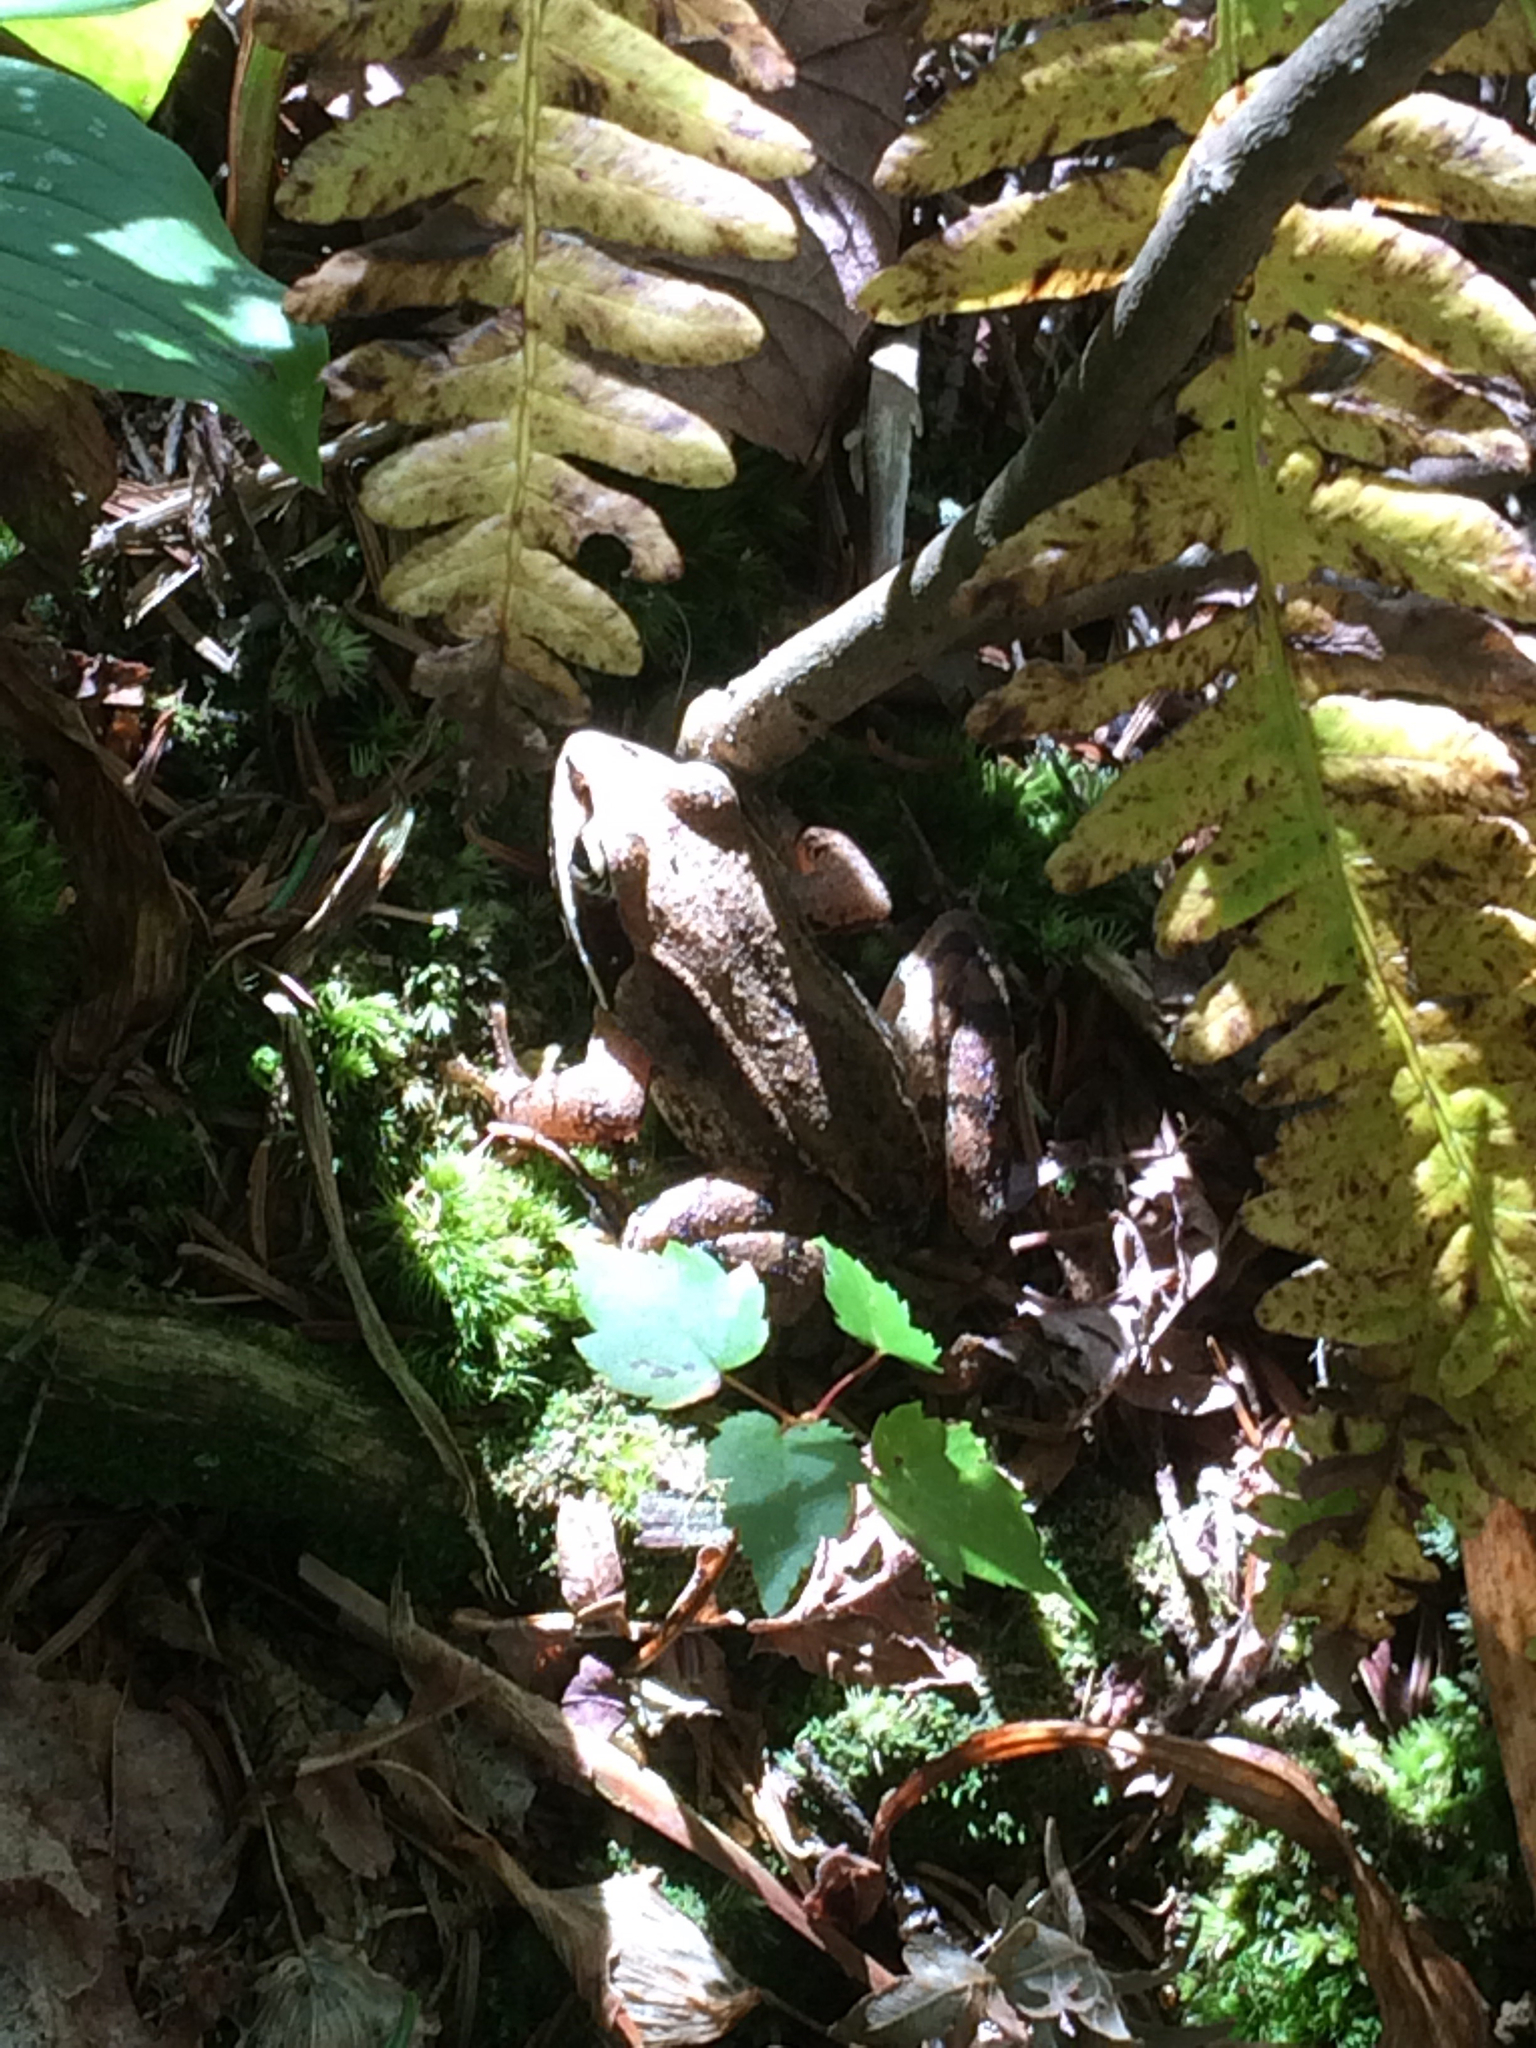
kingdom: Animalia
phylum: Chordata
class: Amphibia
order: Anura
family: Ranidae
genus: Lithobates
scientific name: Lithobates sylvaticus
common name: Wood frog
